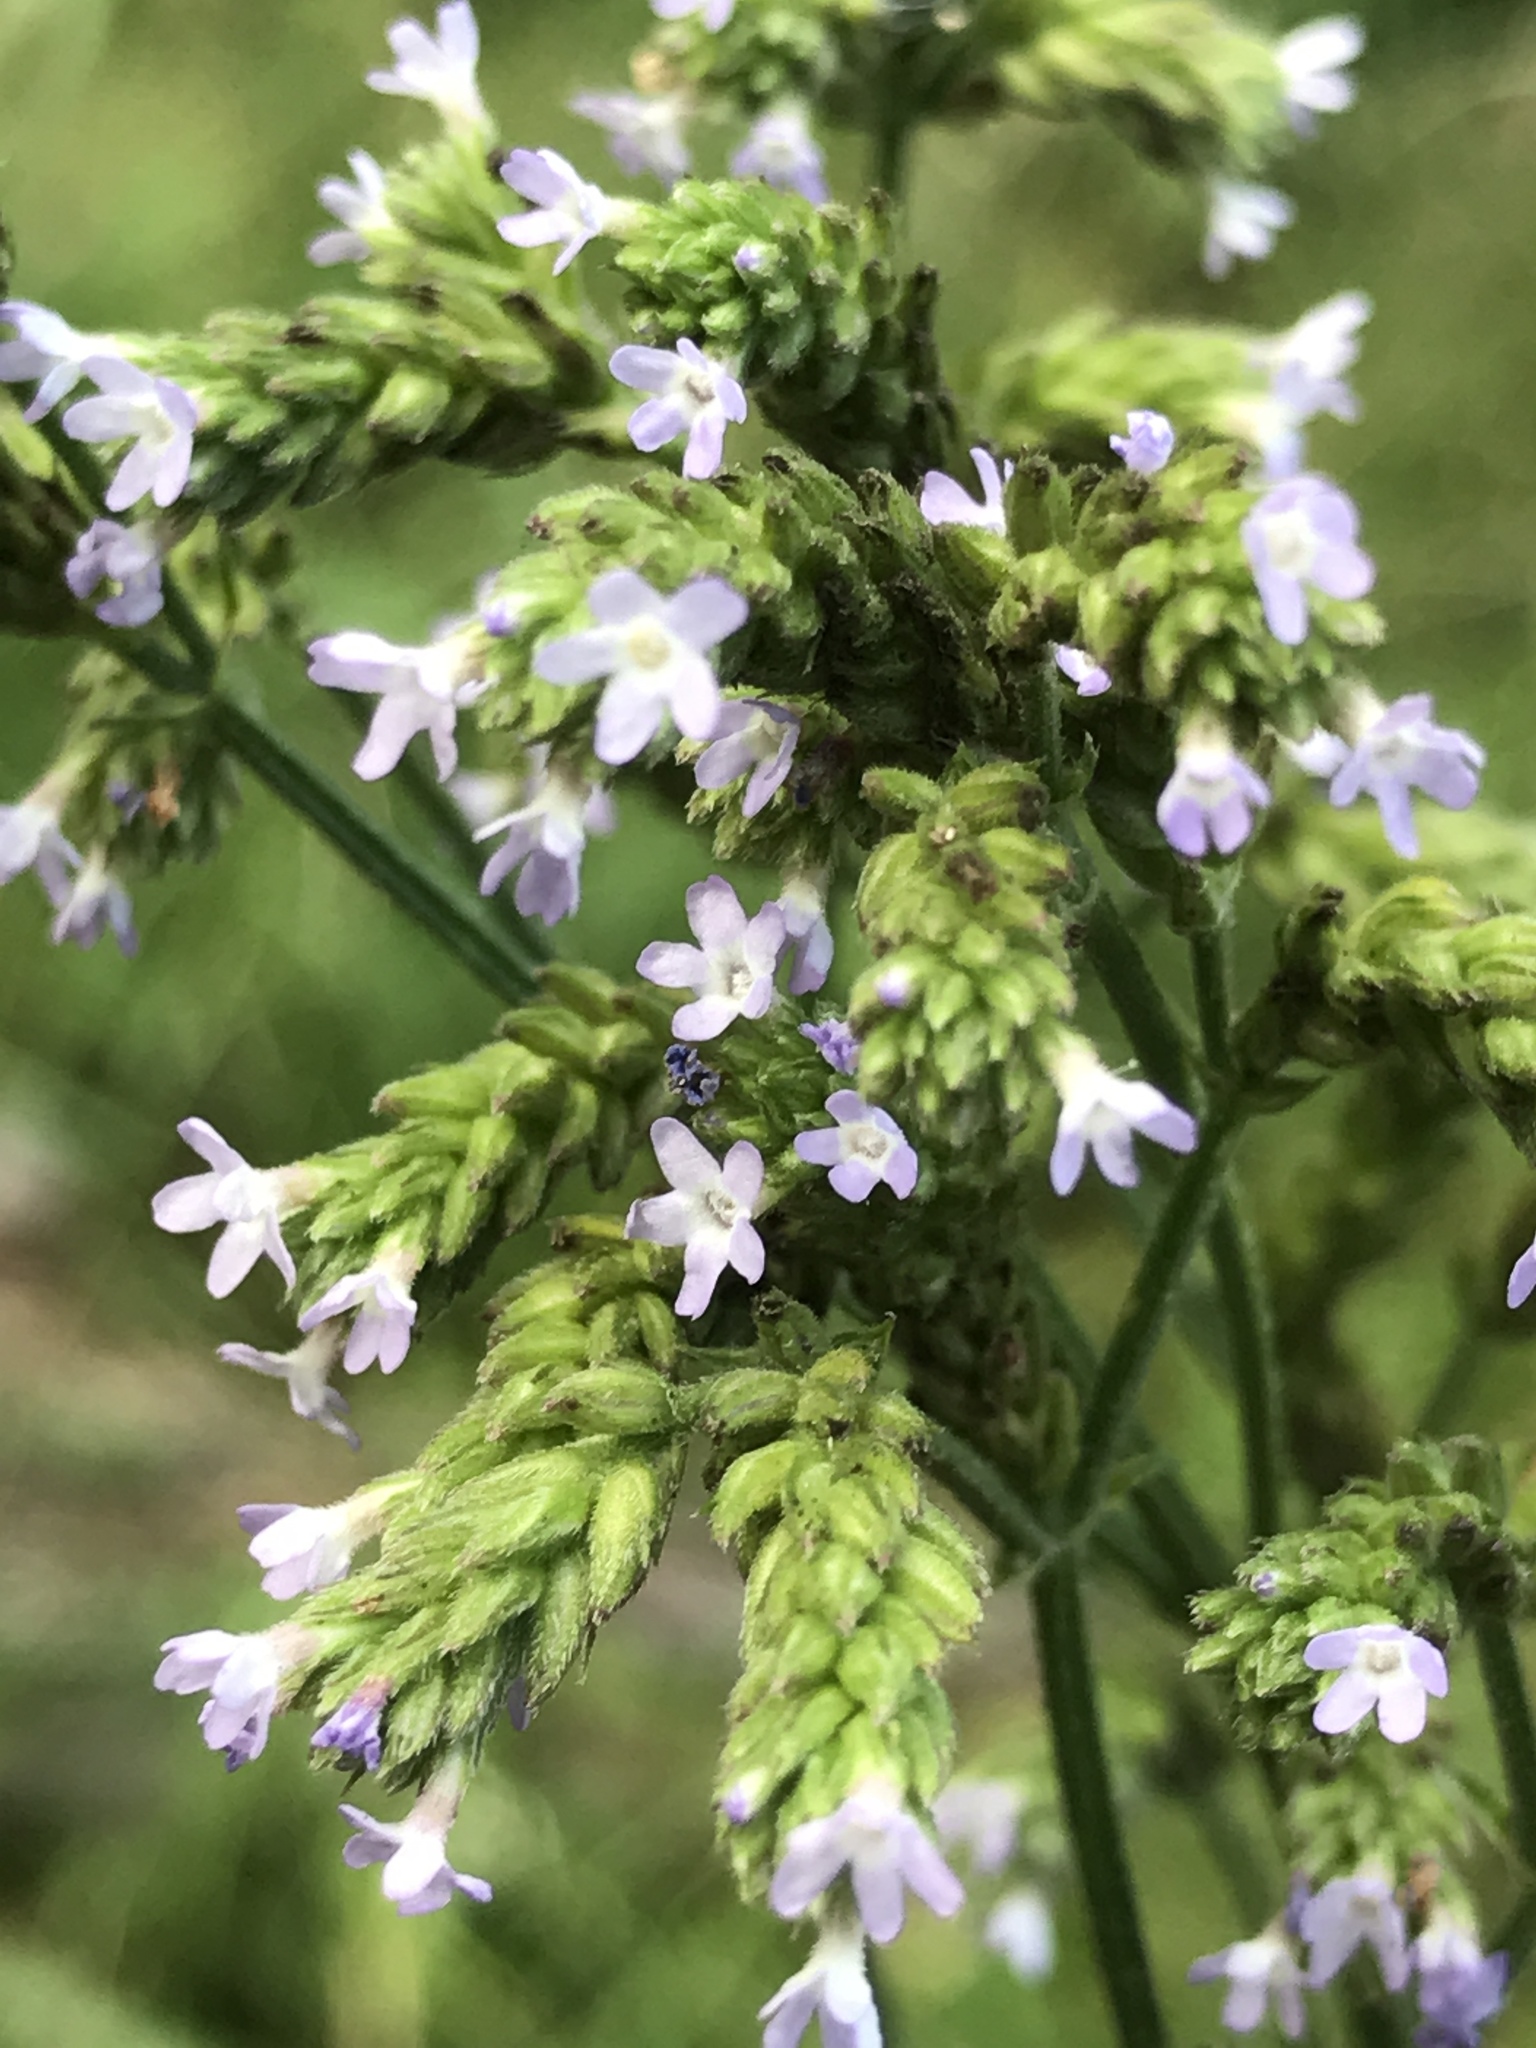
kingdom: Plantae
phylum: Tracheophyta
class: Magnoliopsida
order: Lamiales
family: Verbenaceae
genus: Verbena
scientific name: Verbena brasiliensis
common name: Brazilian vervain
